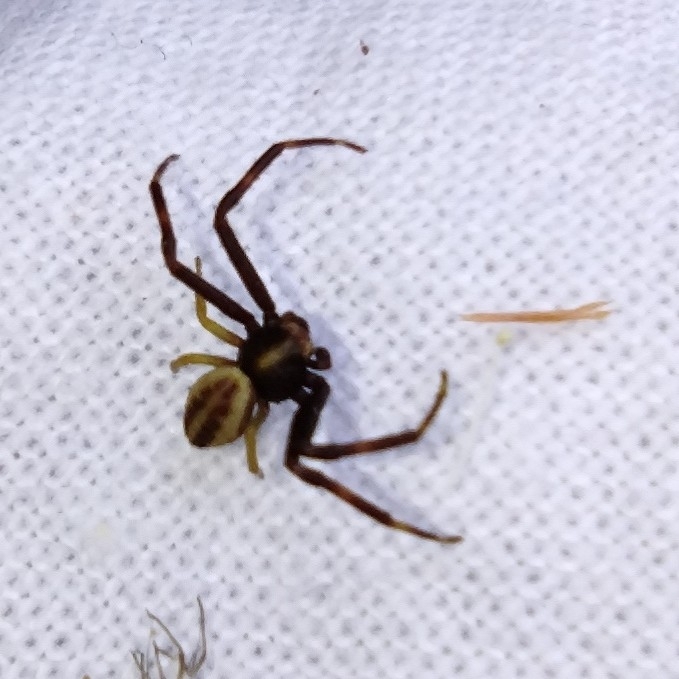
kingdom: Animalia
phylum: Arthropoda
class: Arachnida
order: Araneae
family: Thomisidae
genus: Misumena
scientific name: Misumena vatia
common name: Goldenrod crab spider
